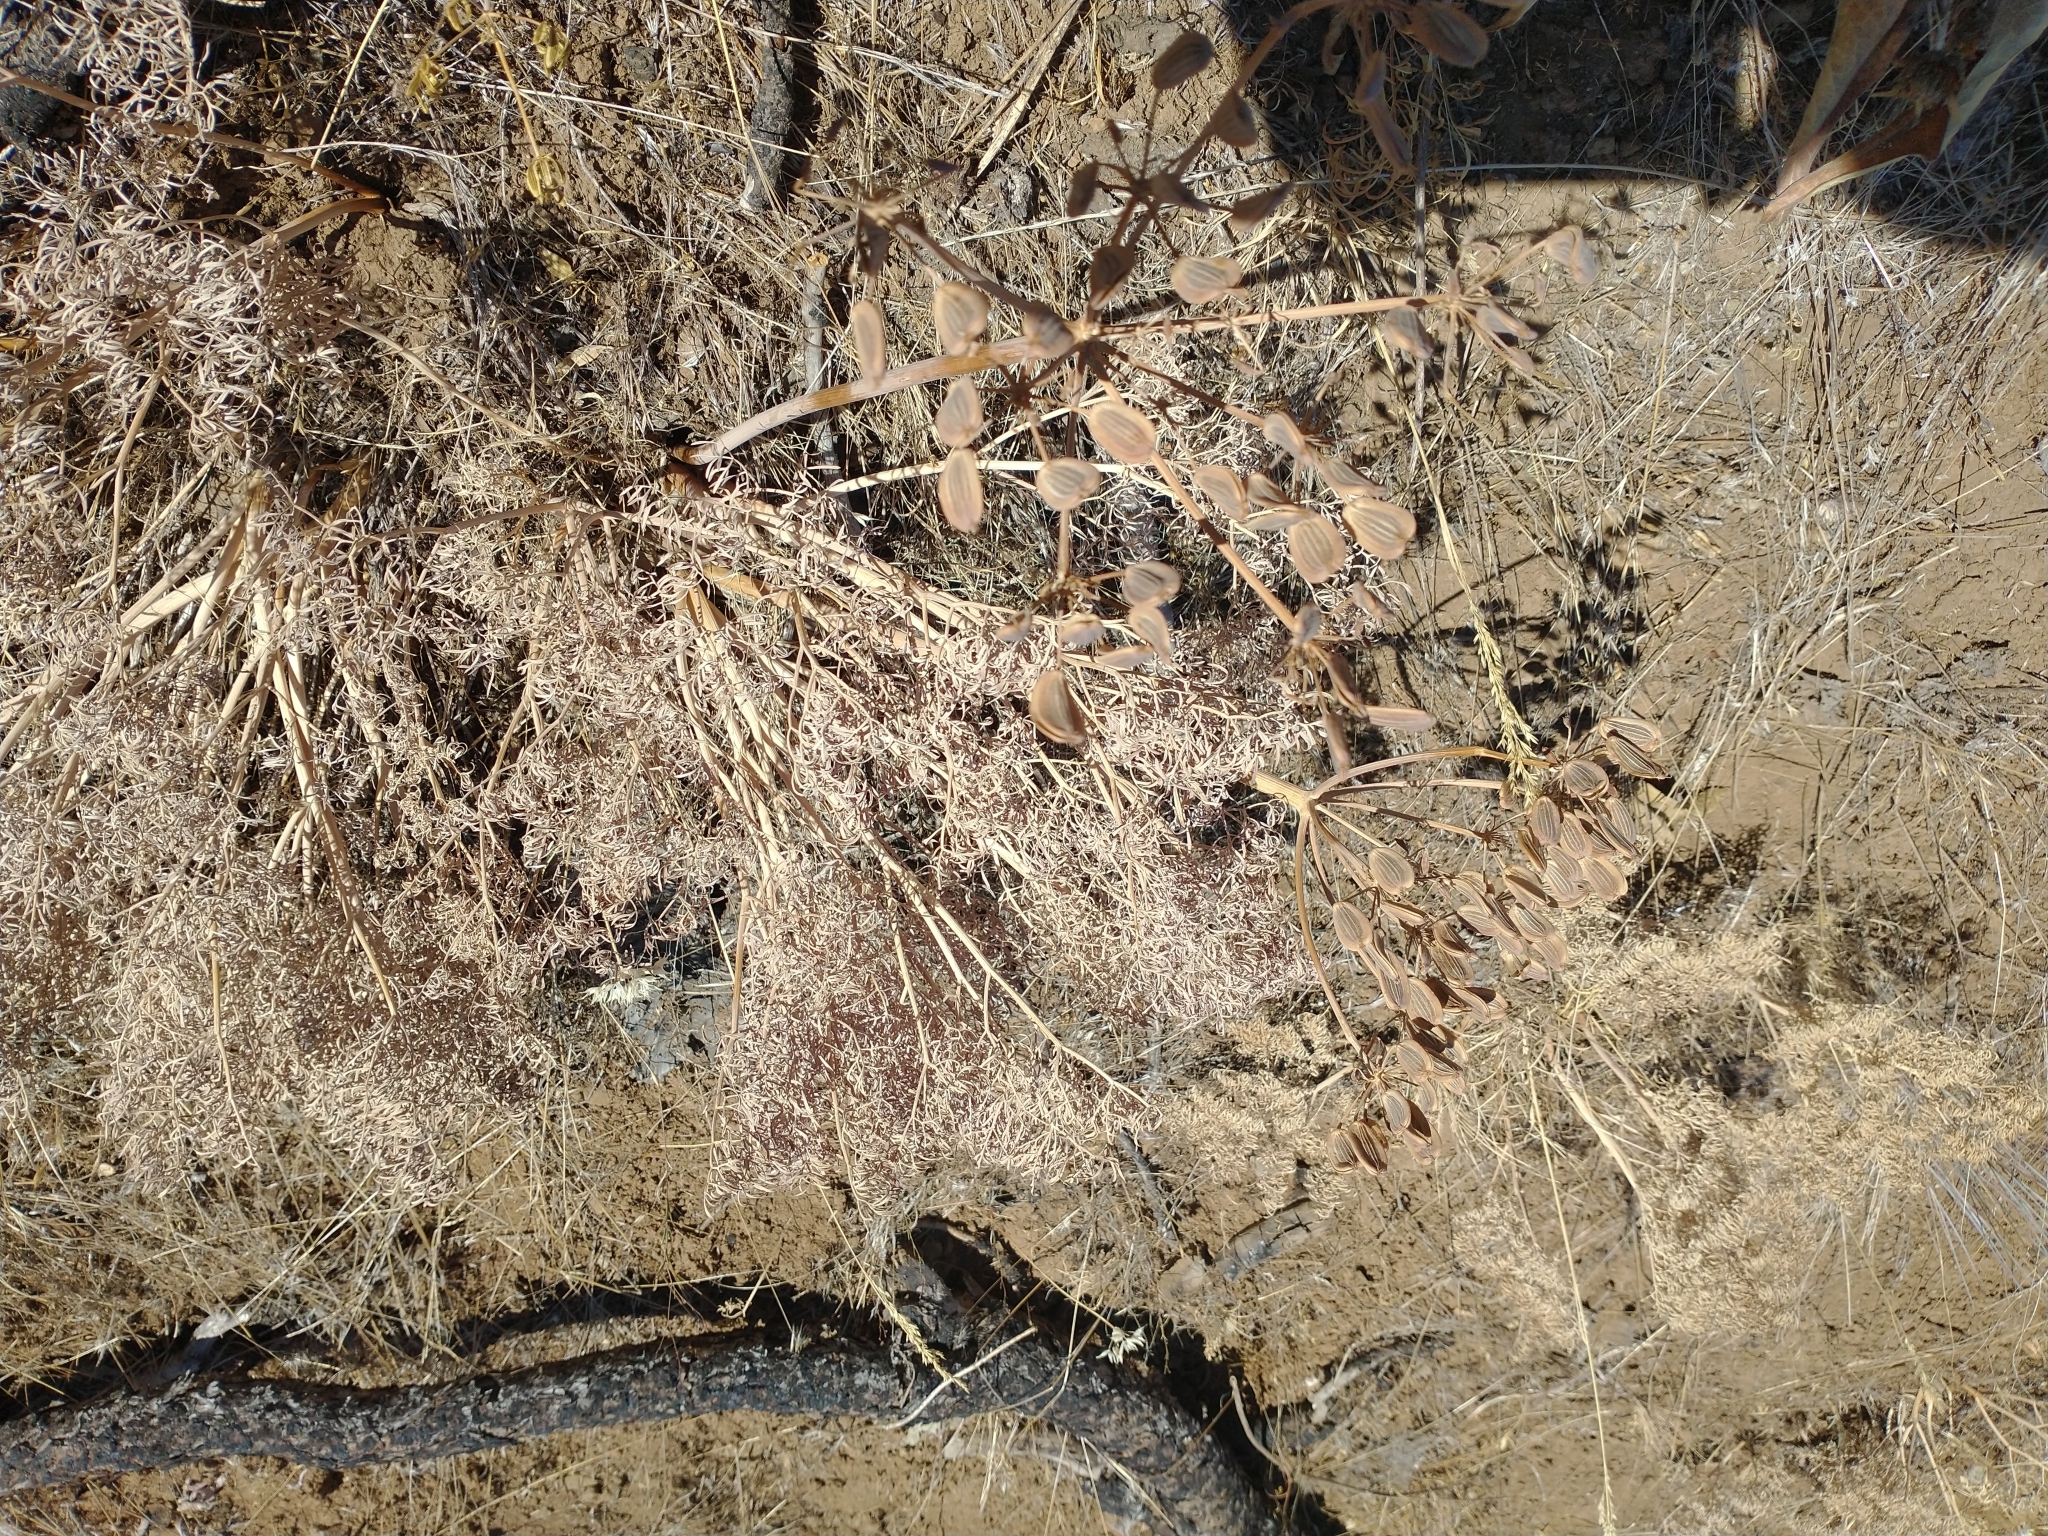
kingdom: Plantae
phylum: Tracheophyta
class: Magnoliopsida
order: Apiales
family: Apiaceae
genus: Lomatium
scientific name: Lomatium columbianum
